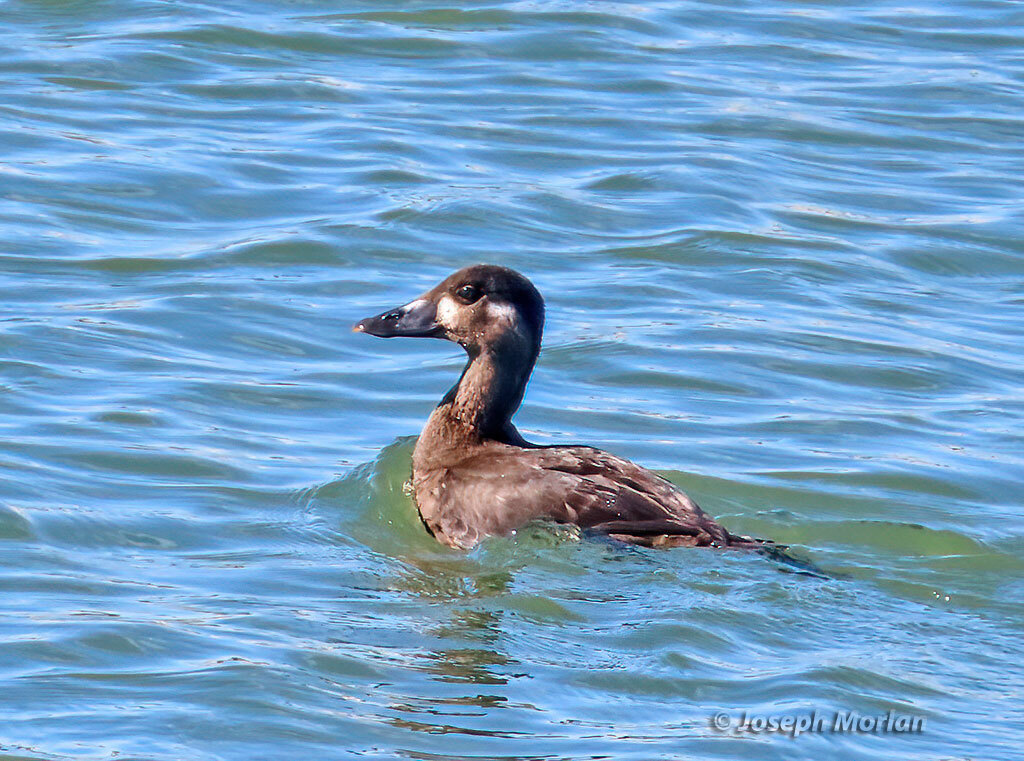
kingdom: Animalia
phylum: Chordata
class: Aves
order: Anseriformes
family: Anatidae
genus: Melanitta
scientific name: Melanitta perspicillata
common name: Surf scoter
